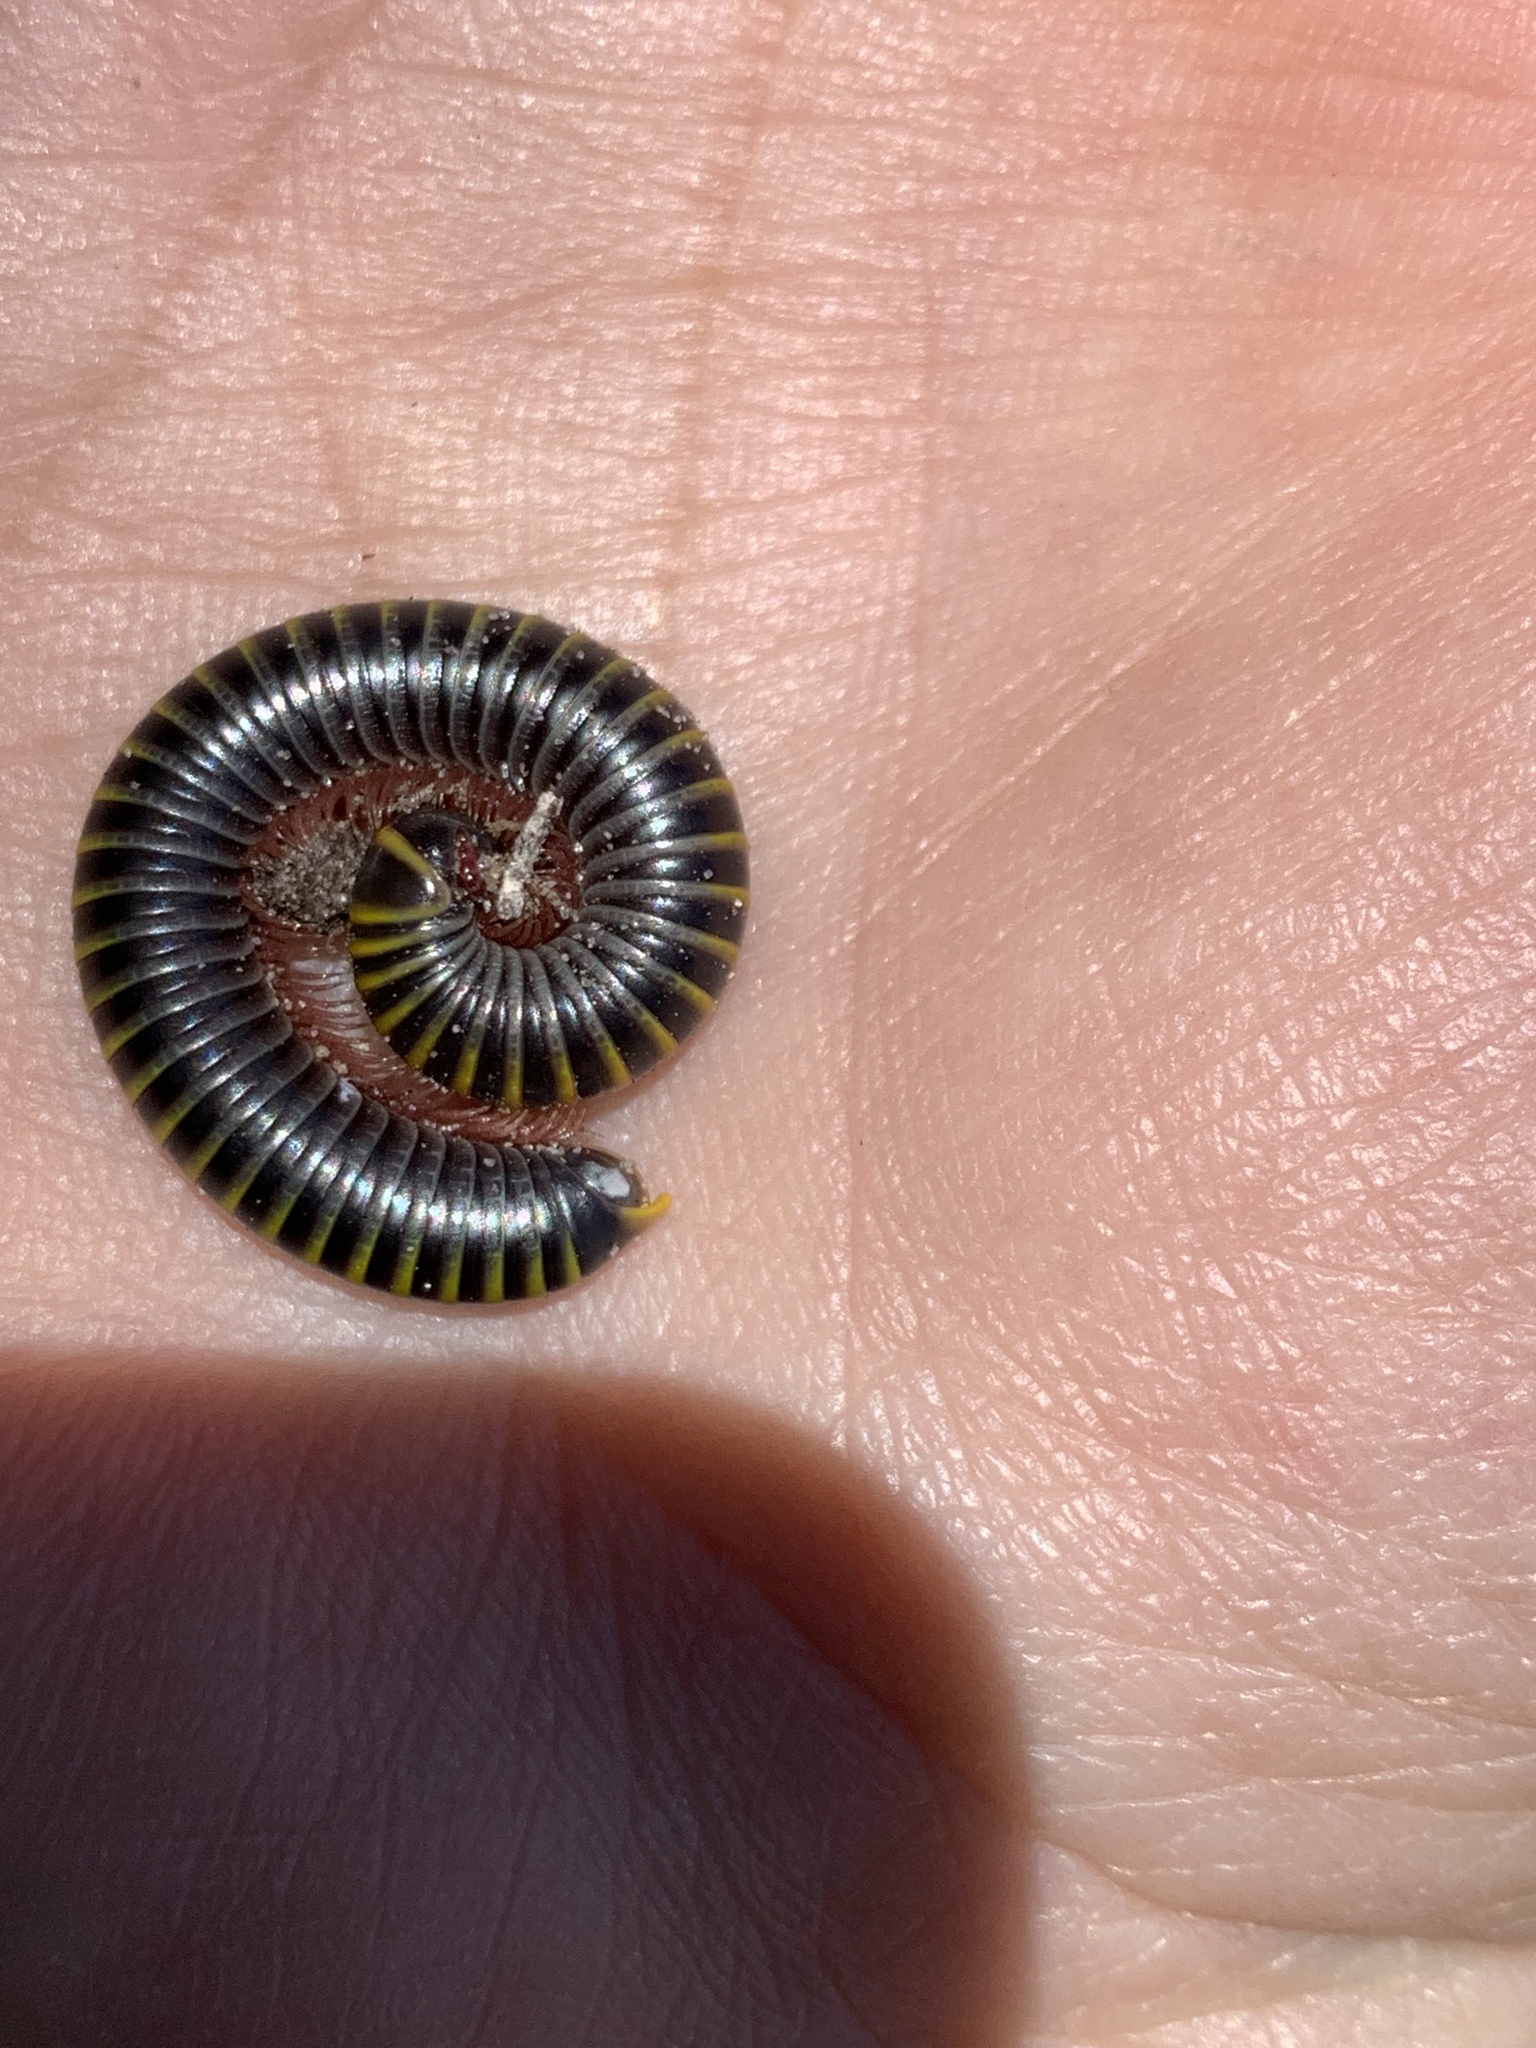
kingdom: Animalia
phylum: Arthropoda
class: Diplopoda
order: Spirobolida
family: Rhinocricidae
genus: Anadenobolus
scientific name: Anadenobolus monilicornis
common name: Caribbean millipede
